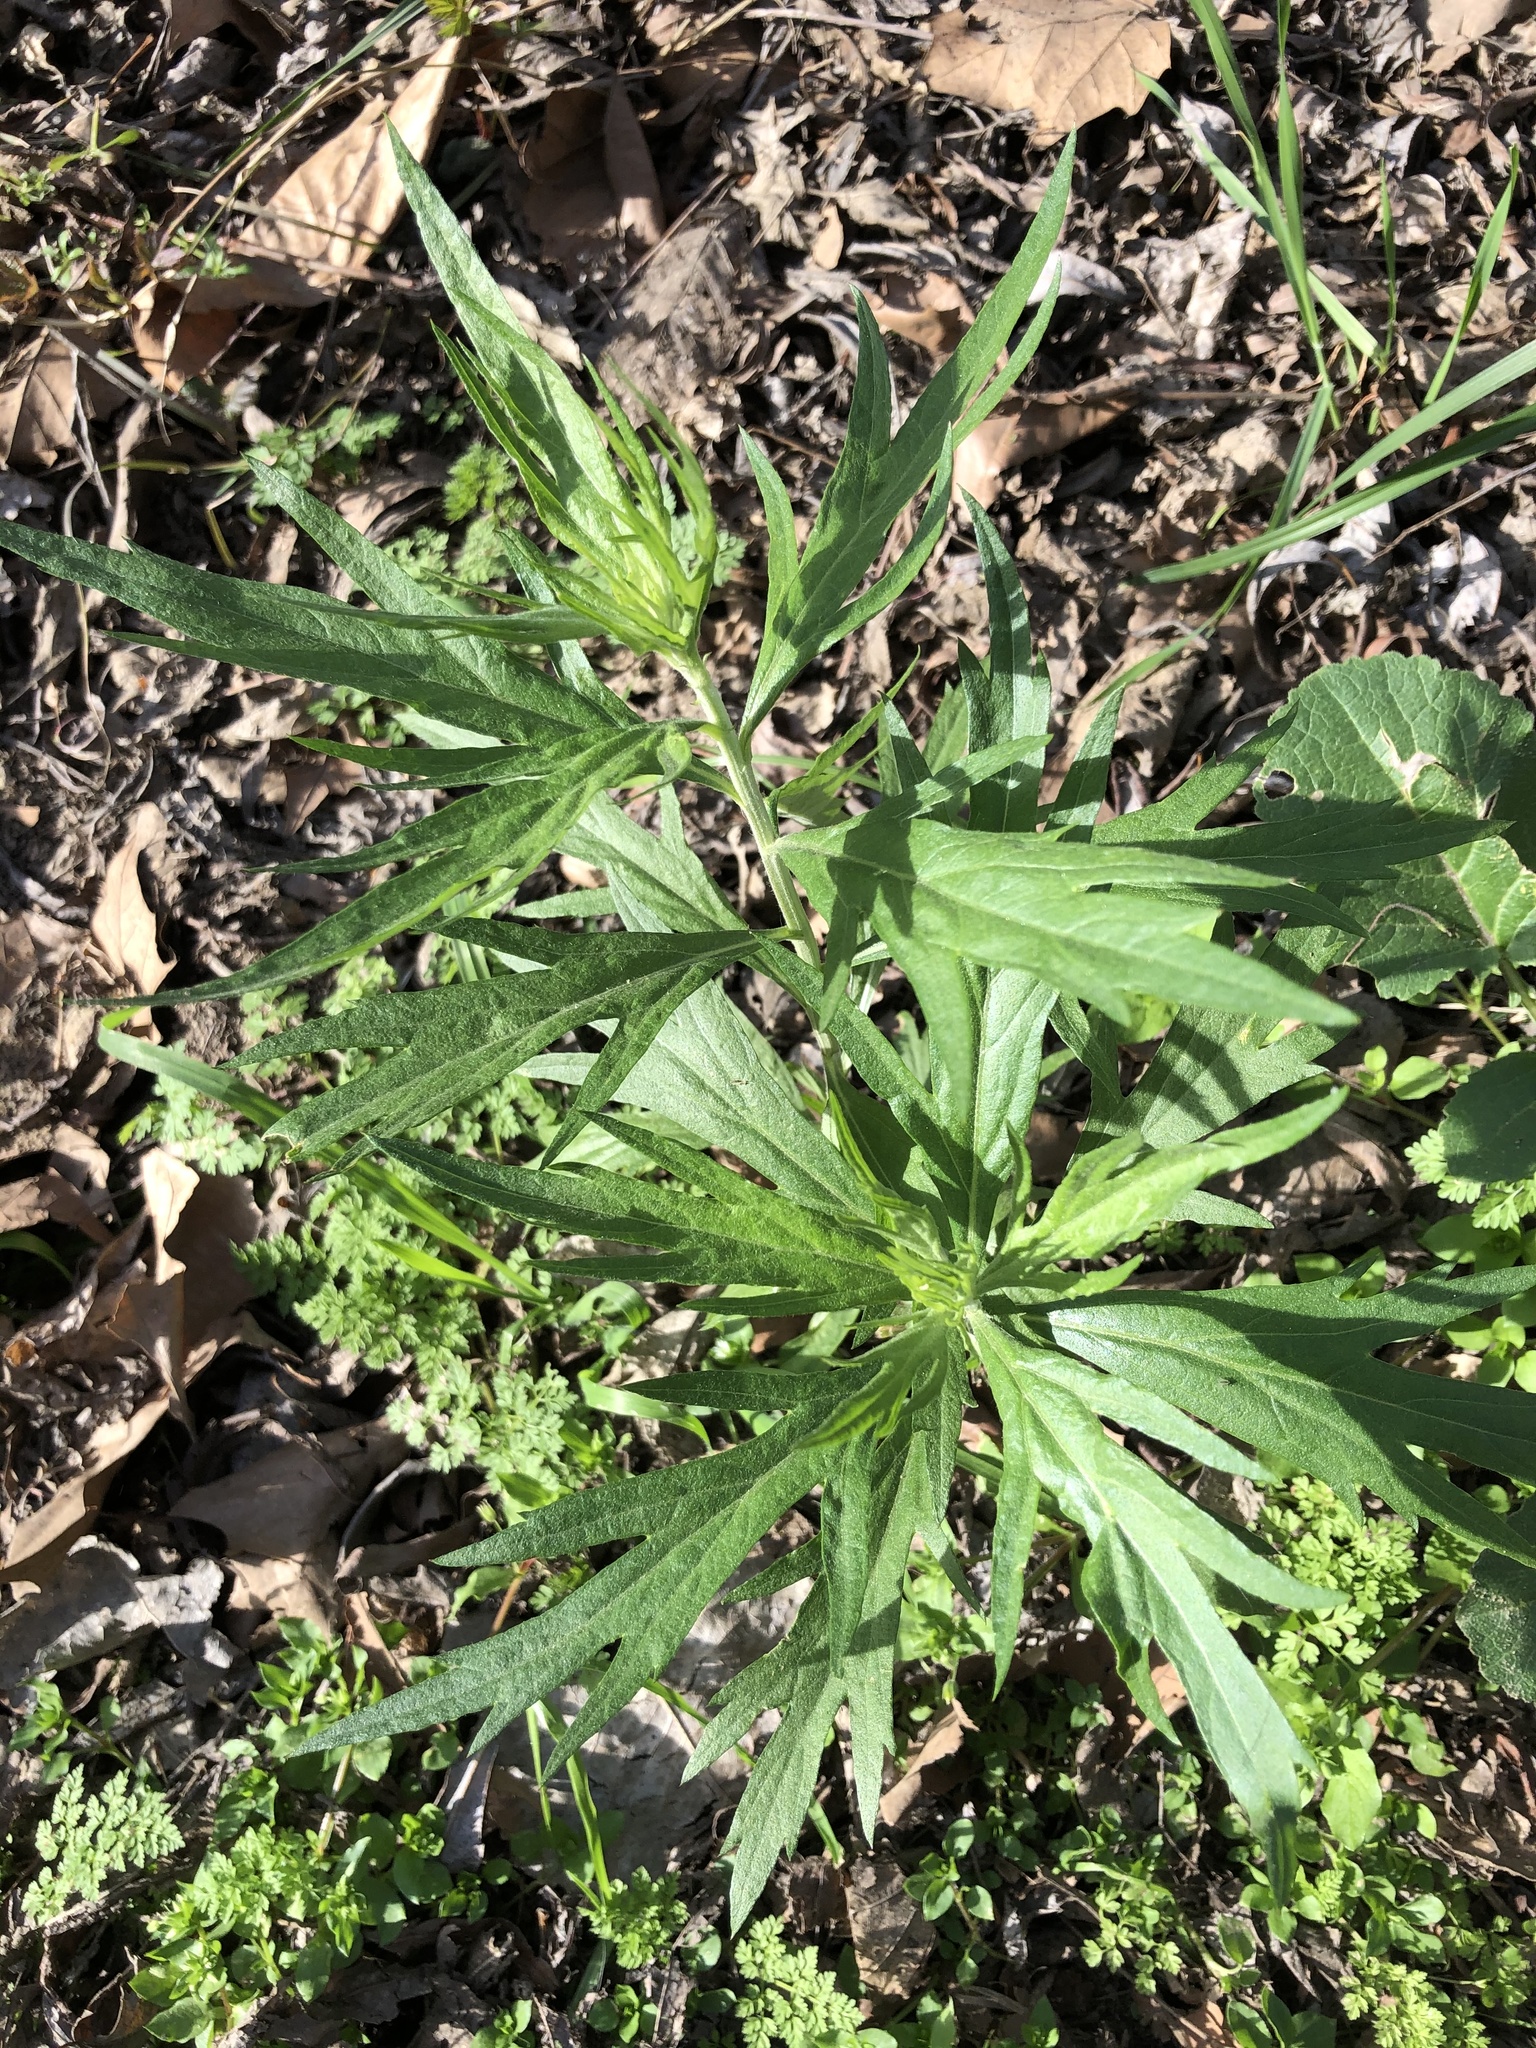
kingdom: Plantae
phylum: Tracheophyta
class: Magnoliopsida
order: Asterales
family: Asteraceae
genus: Artemisia
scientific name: Artemisia douglasiana
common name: Northwest mugwort
